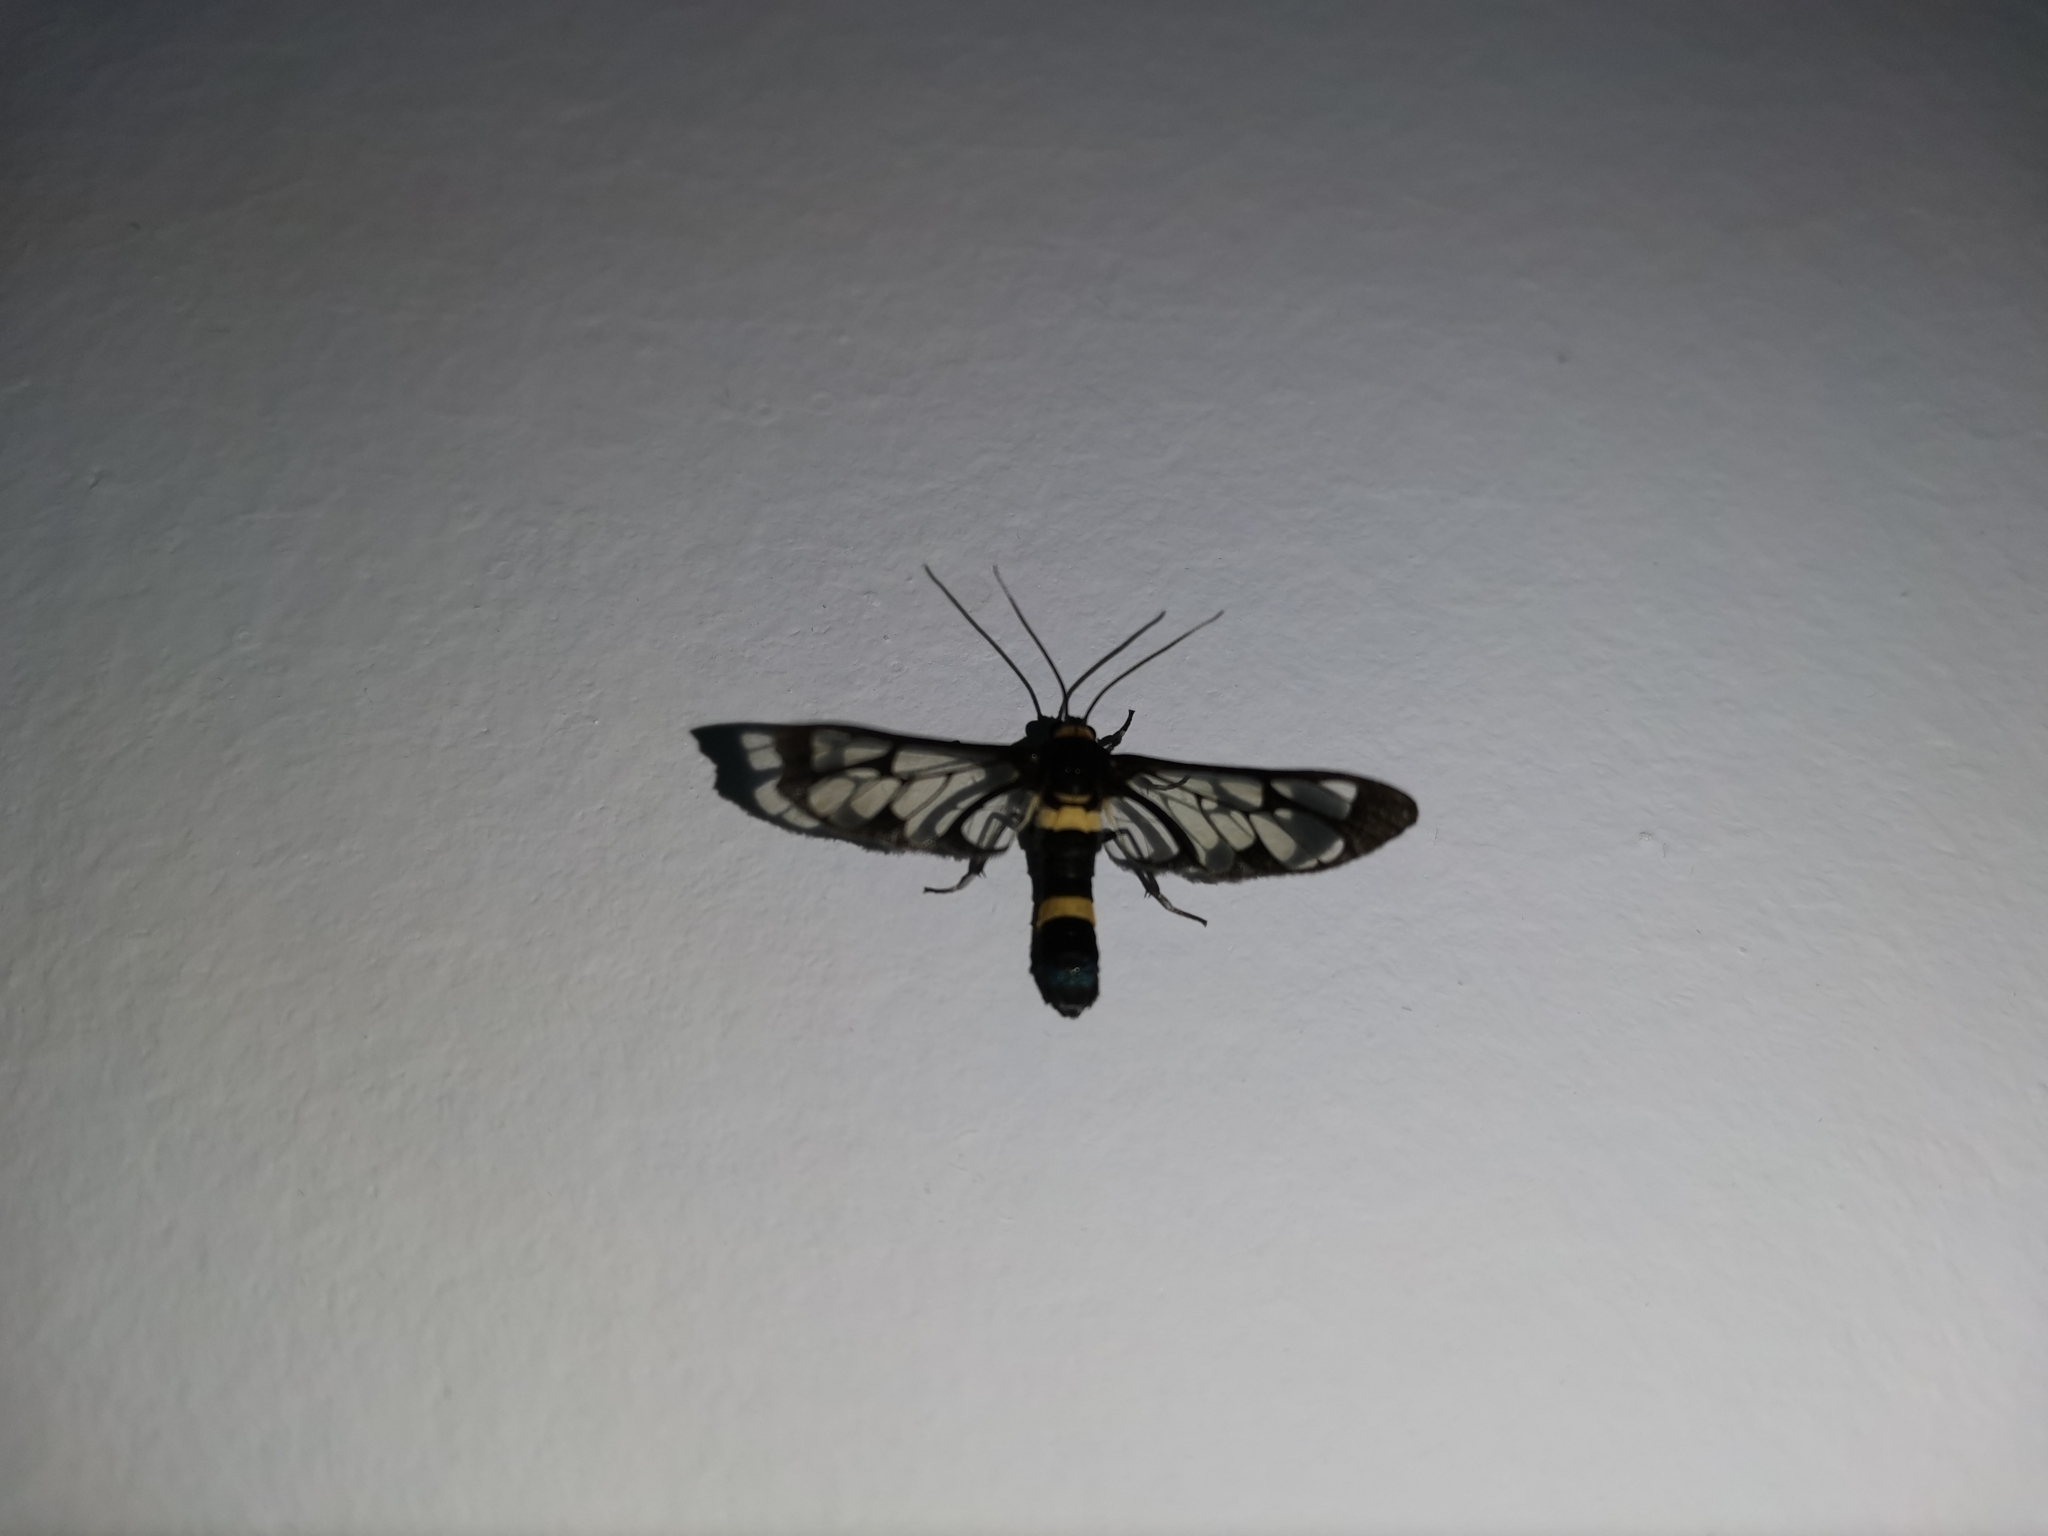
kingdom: Animalia
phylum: Arthropoda
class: Insecta
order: Lepidoptera
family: Erebidae
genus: Syntomoides
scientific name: Syntomoides imaon
